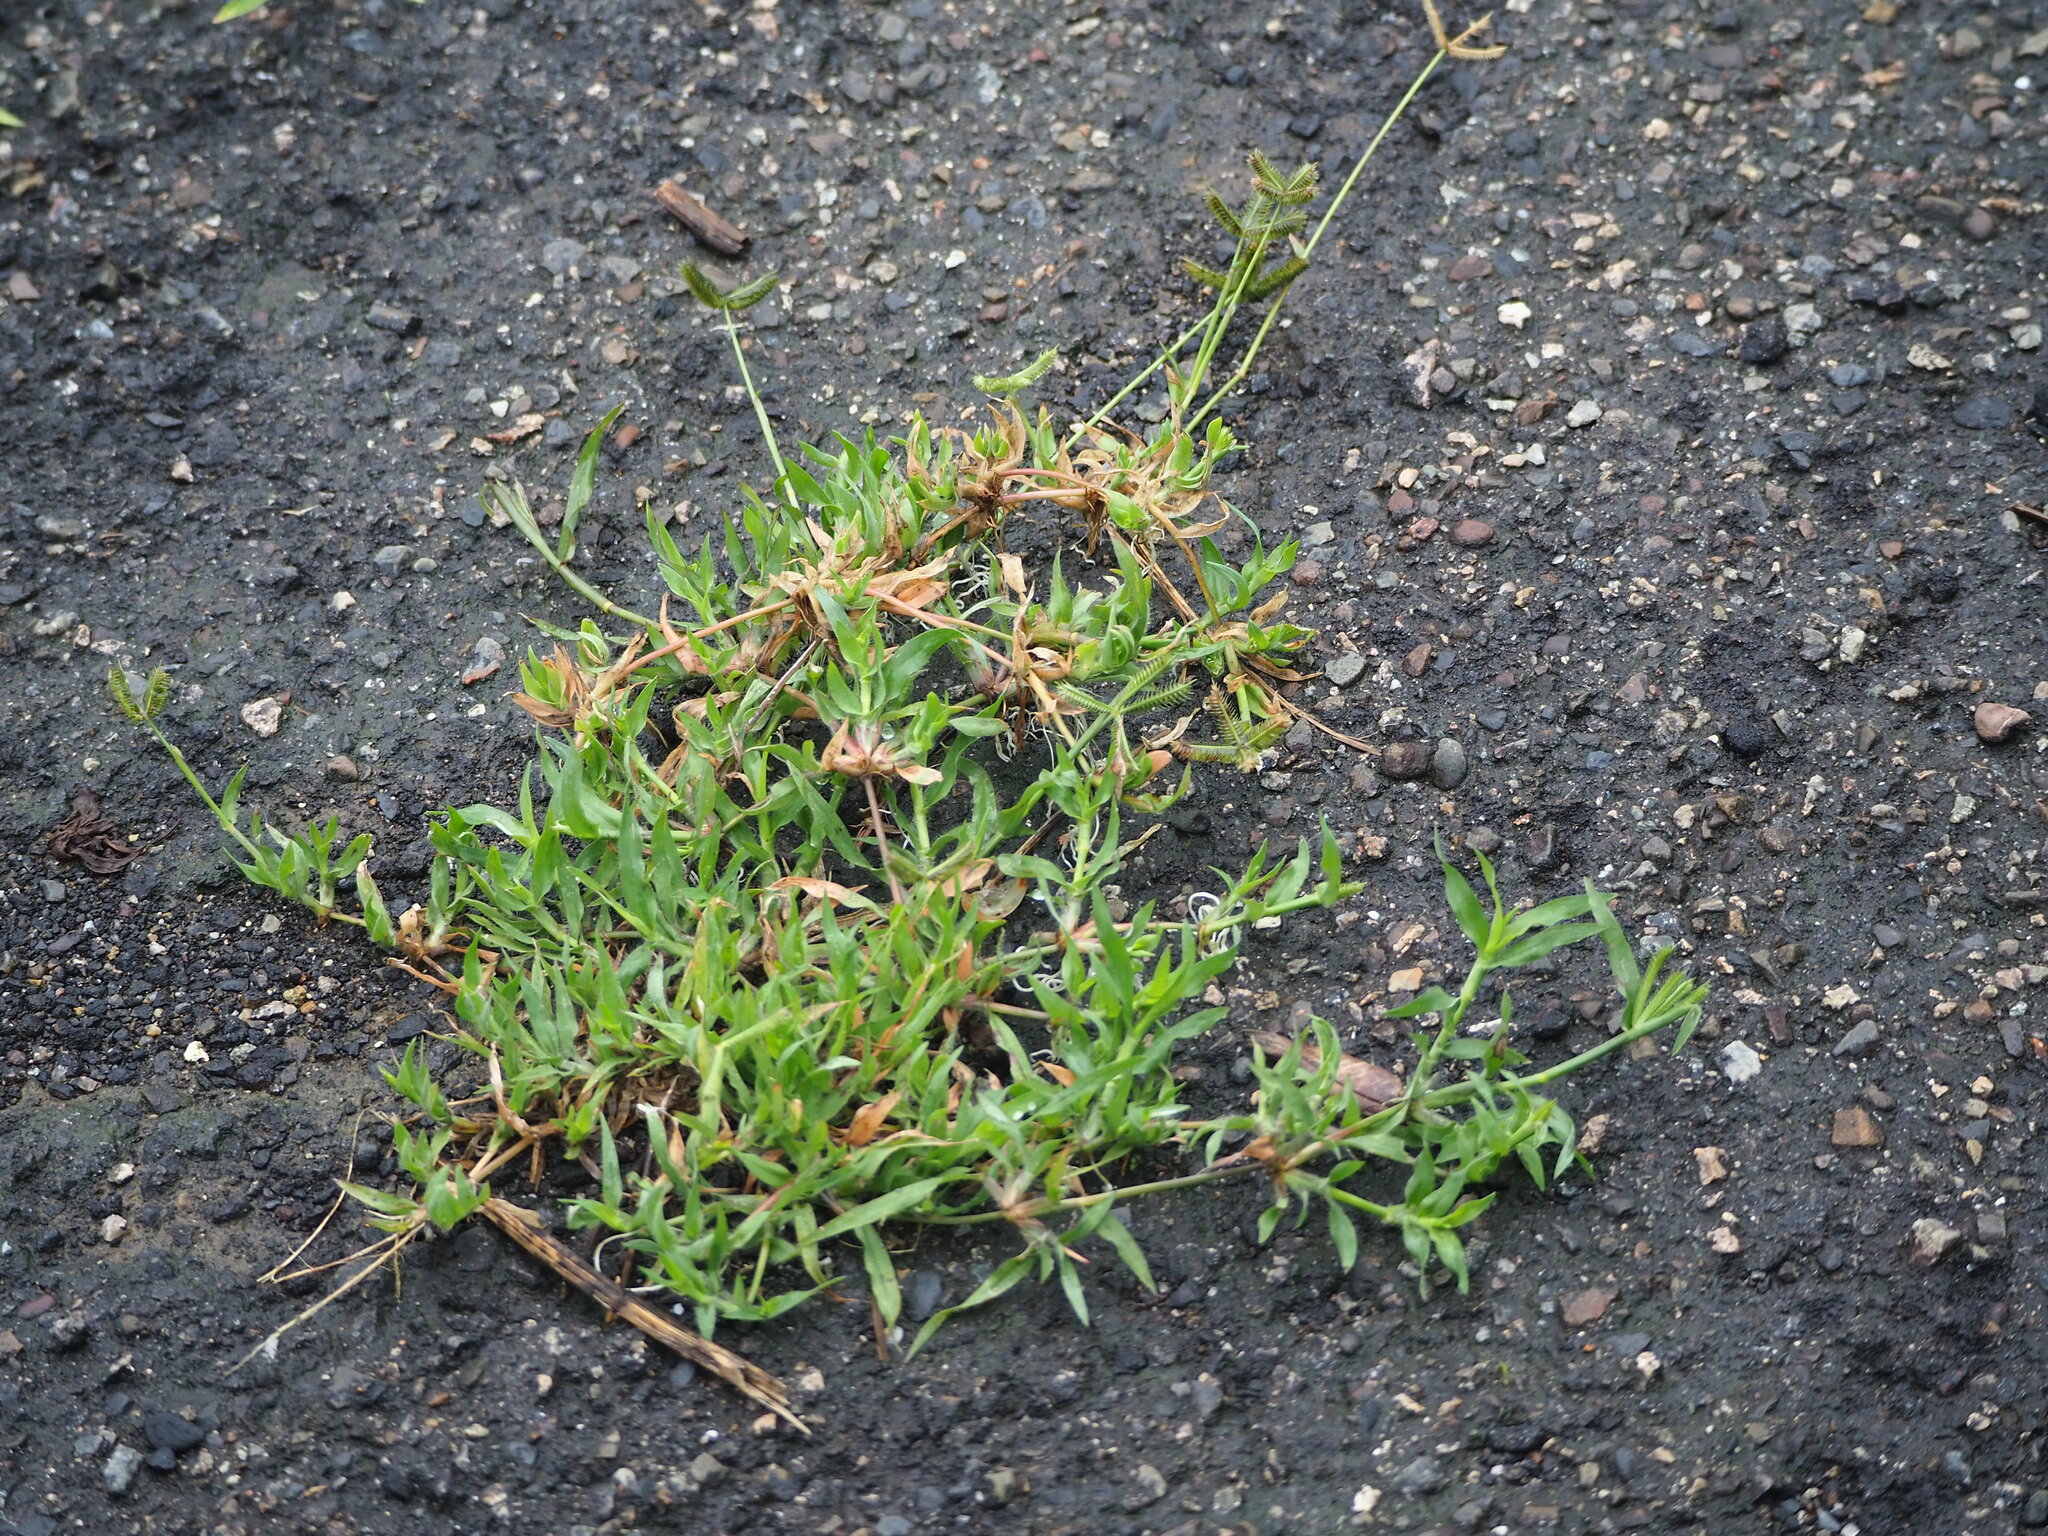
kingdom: Plantae
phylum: Tracheophyta
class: Liliopsida
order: Poales
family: Poaceae
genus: Dactyloctenium
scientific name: Dactyloctenium aegyptium
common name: Egyptian grass
